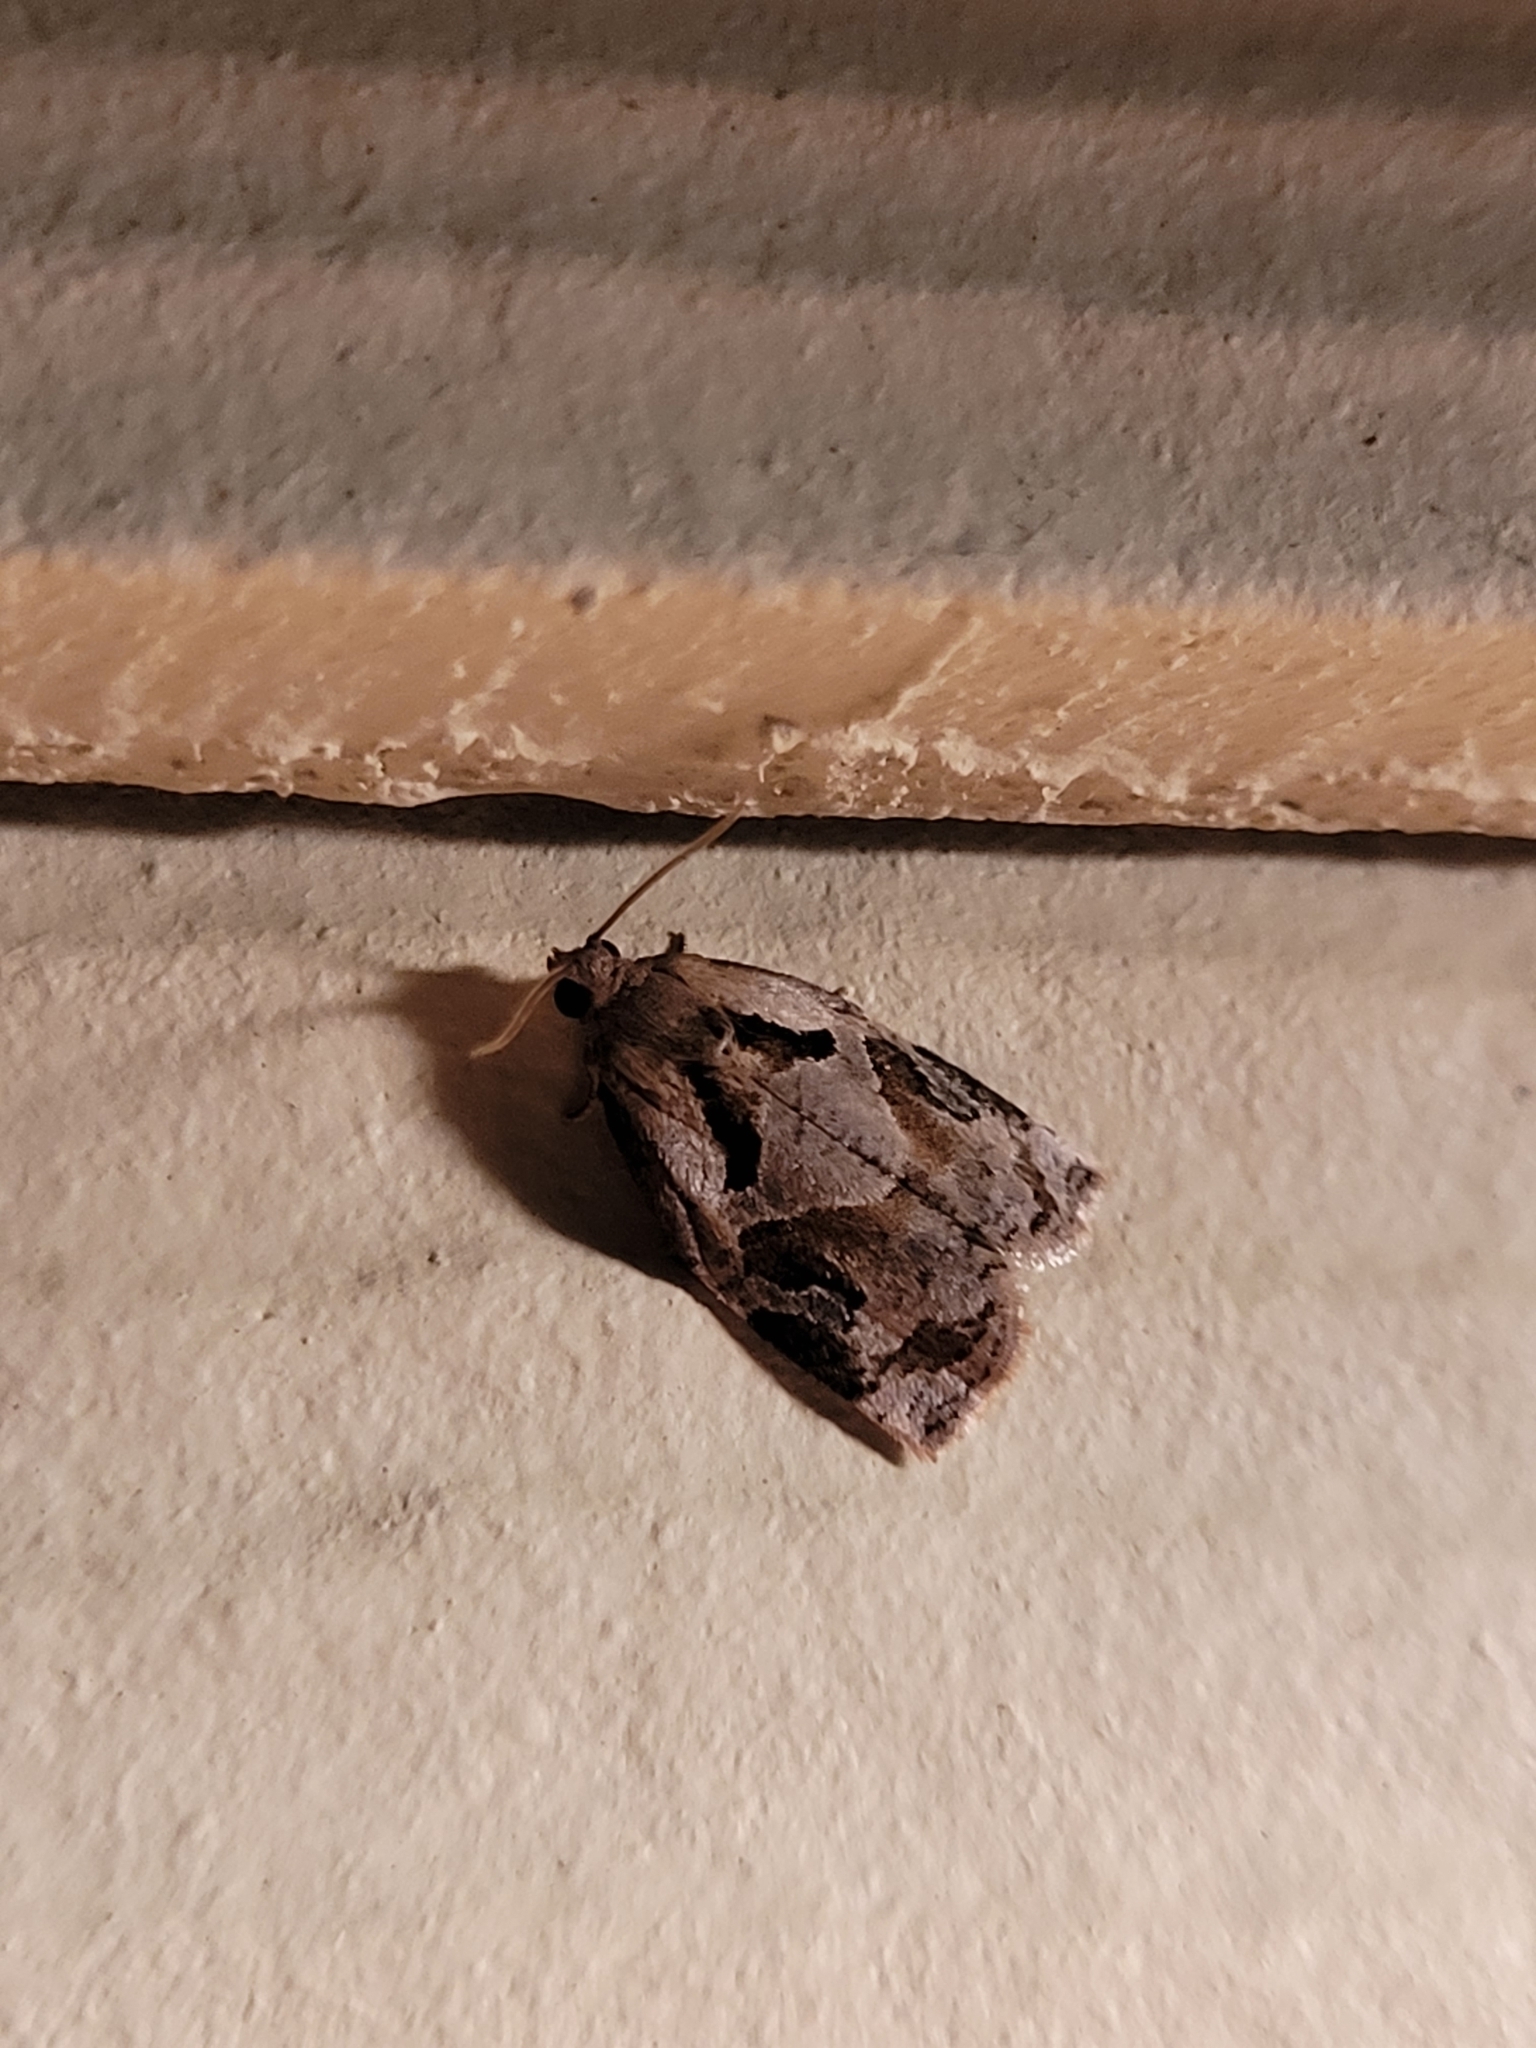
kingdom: Animalia
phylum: Arthropoda
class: Insecta
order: Lepidoptera
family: Tortricidae
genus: Archips
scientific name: Archips grisea
